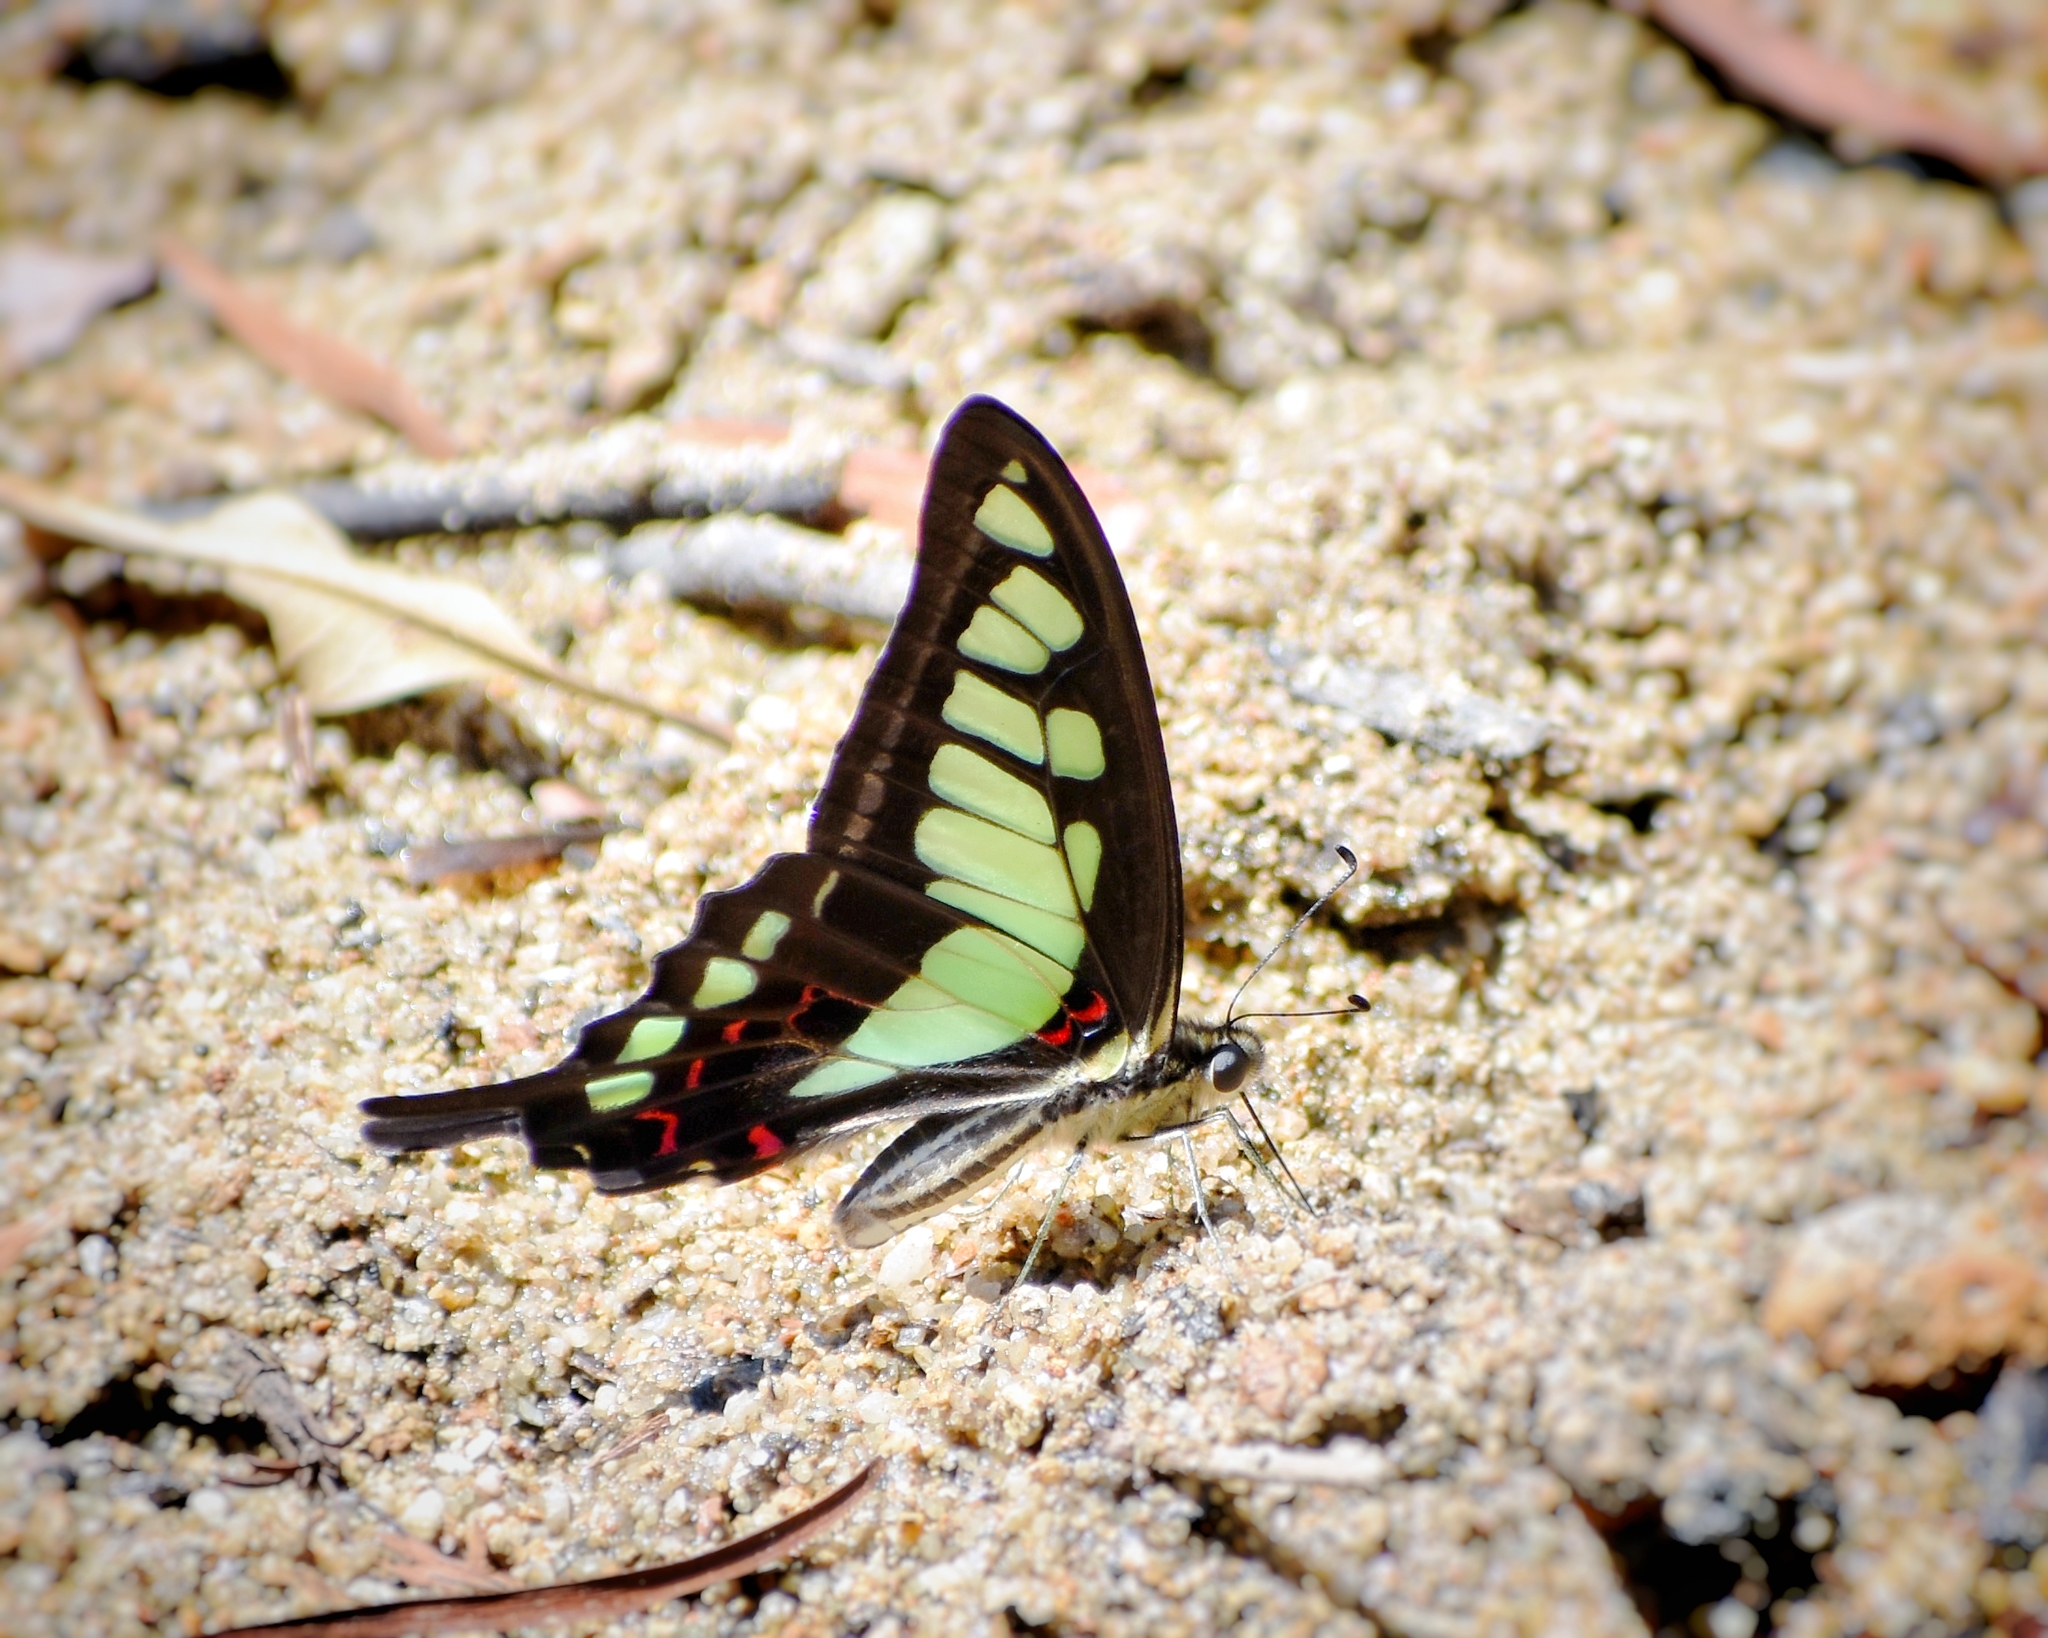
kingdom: Animalia
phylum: Arthropoda
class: Insecta
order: Lepidoptera
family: Papilionidae
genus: Graphium
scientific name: Graphium cloanthus
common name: Glassy bluebottle
